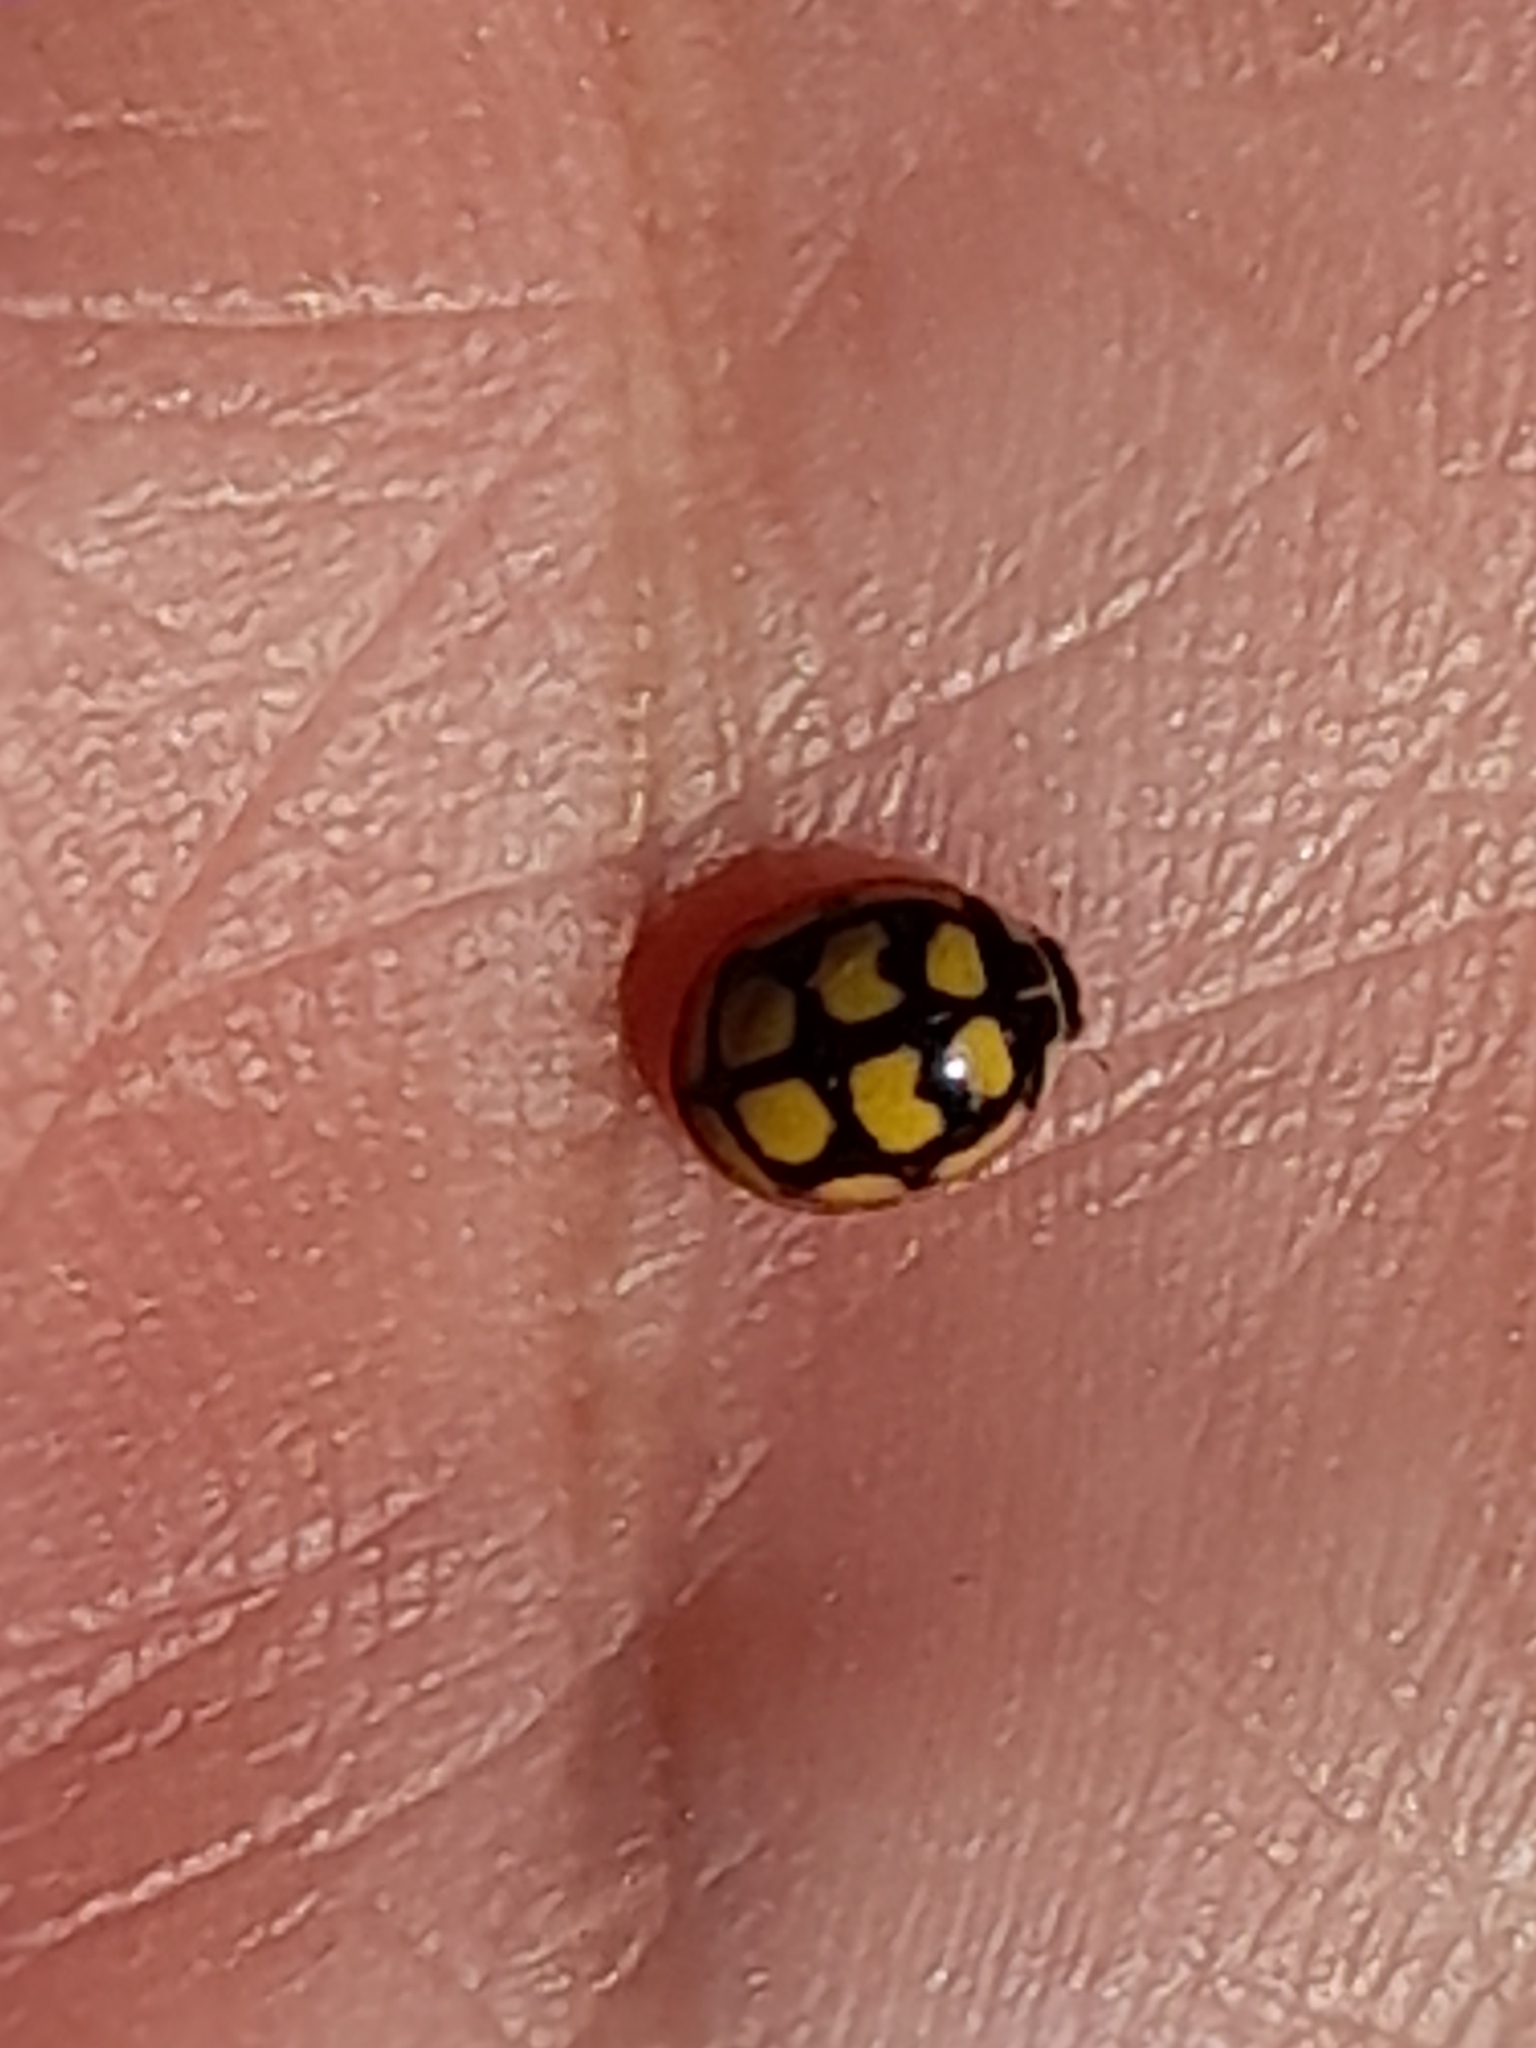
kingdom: Animalia
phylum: Arthropoda
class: Insecta
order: Coleoptera
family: Coccinellidae
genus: Oenopia
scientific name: Oenopia lyncea
